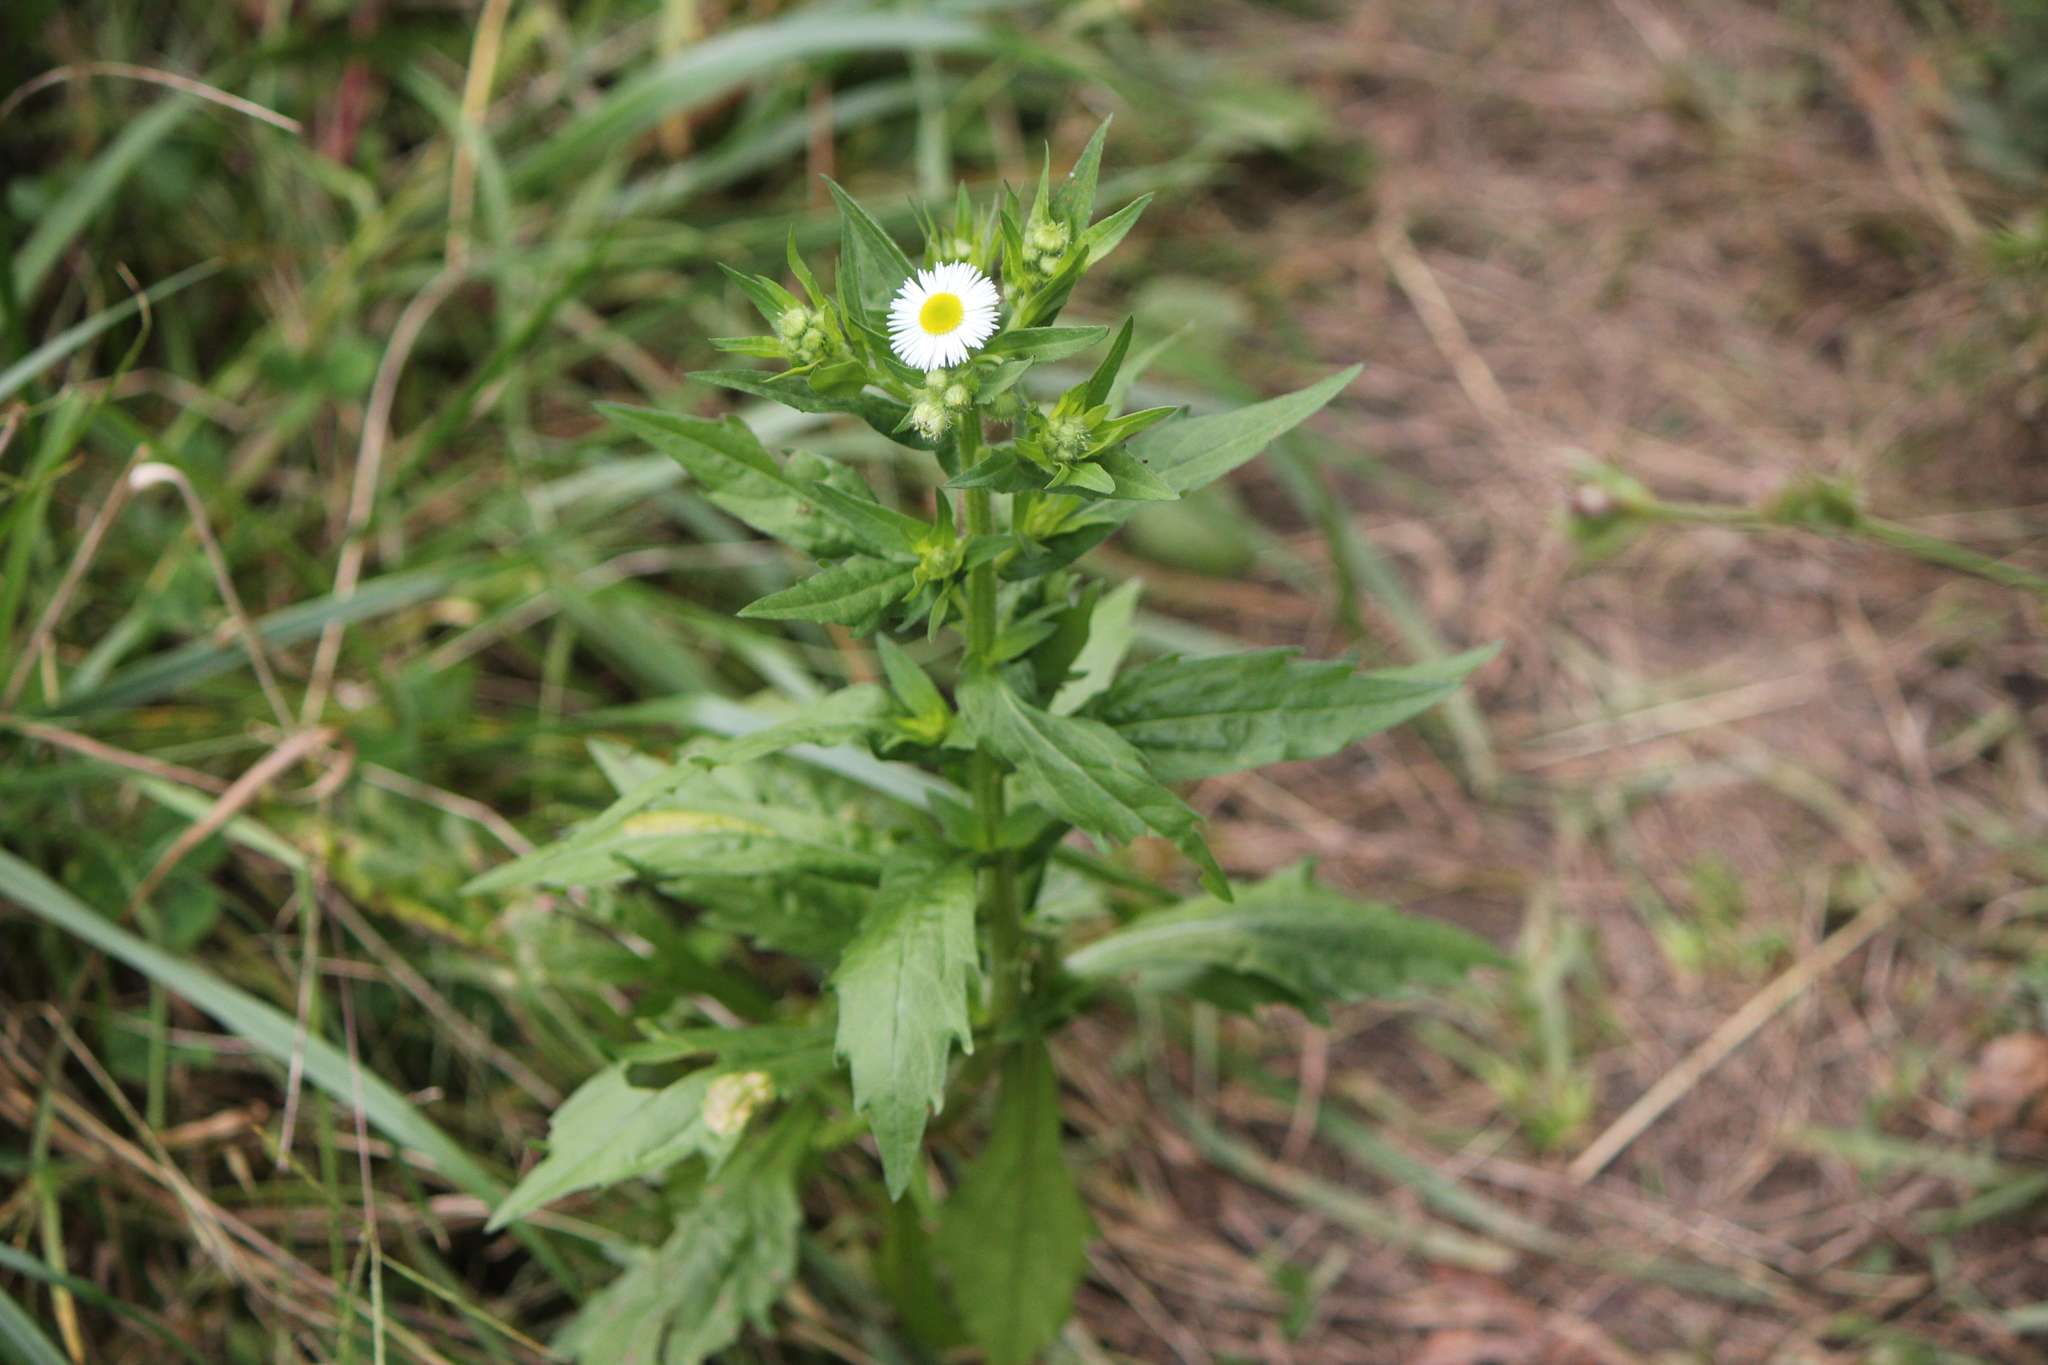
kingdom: Plantae
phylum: Tracheophyta
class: Magnoliopsida
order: Asterales
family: Asteraceae
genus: Erigeron
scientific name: Erigeron annuus
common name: Tall fleabane
